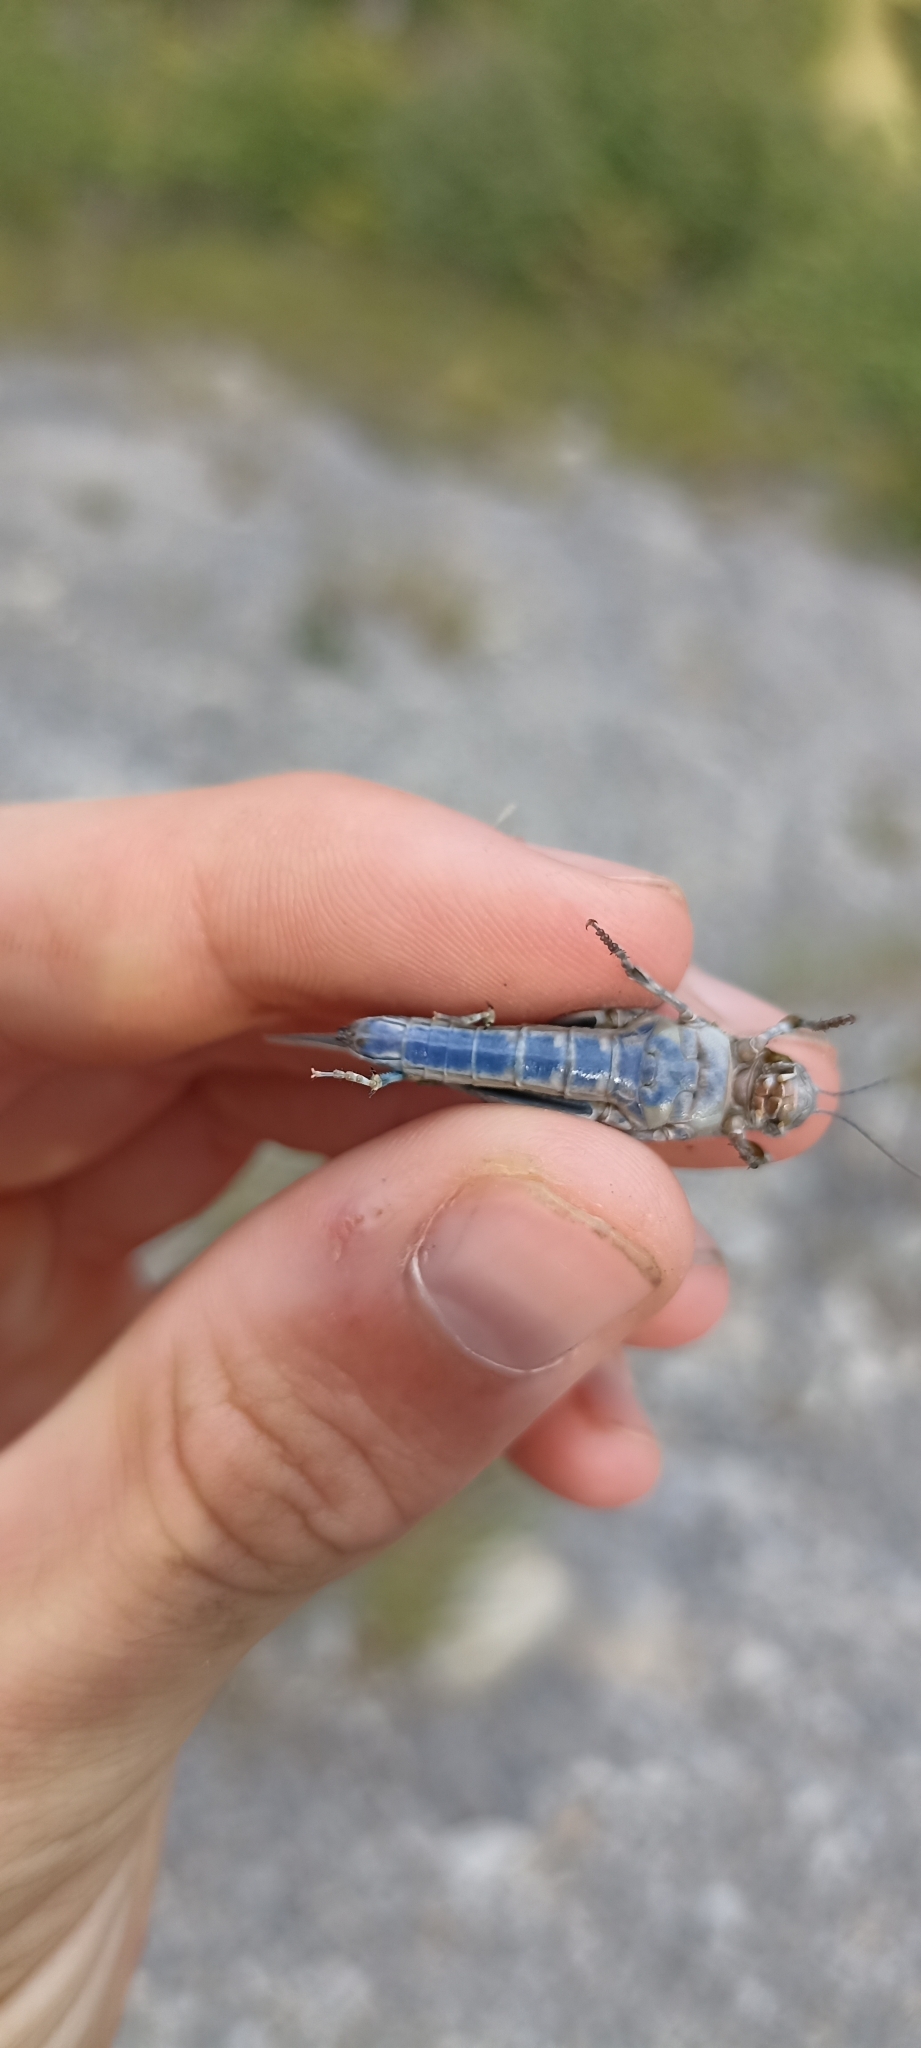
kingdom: Animalia
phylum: Arthropoda
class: Insecta
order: Orthoptera
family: Acrididae
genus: Sphingonotus
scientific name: Sphingonotus caerulans
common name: Blue-winged locust
